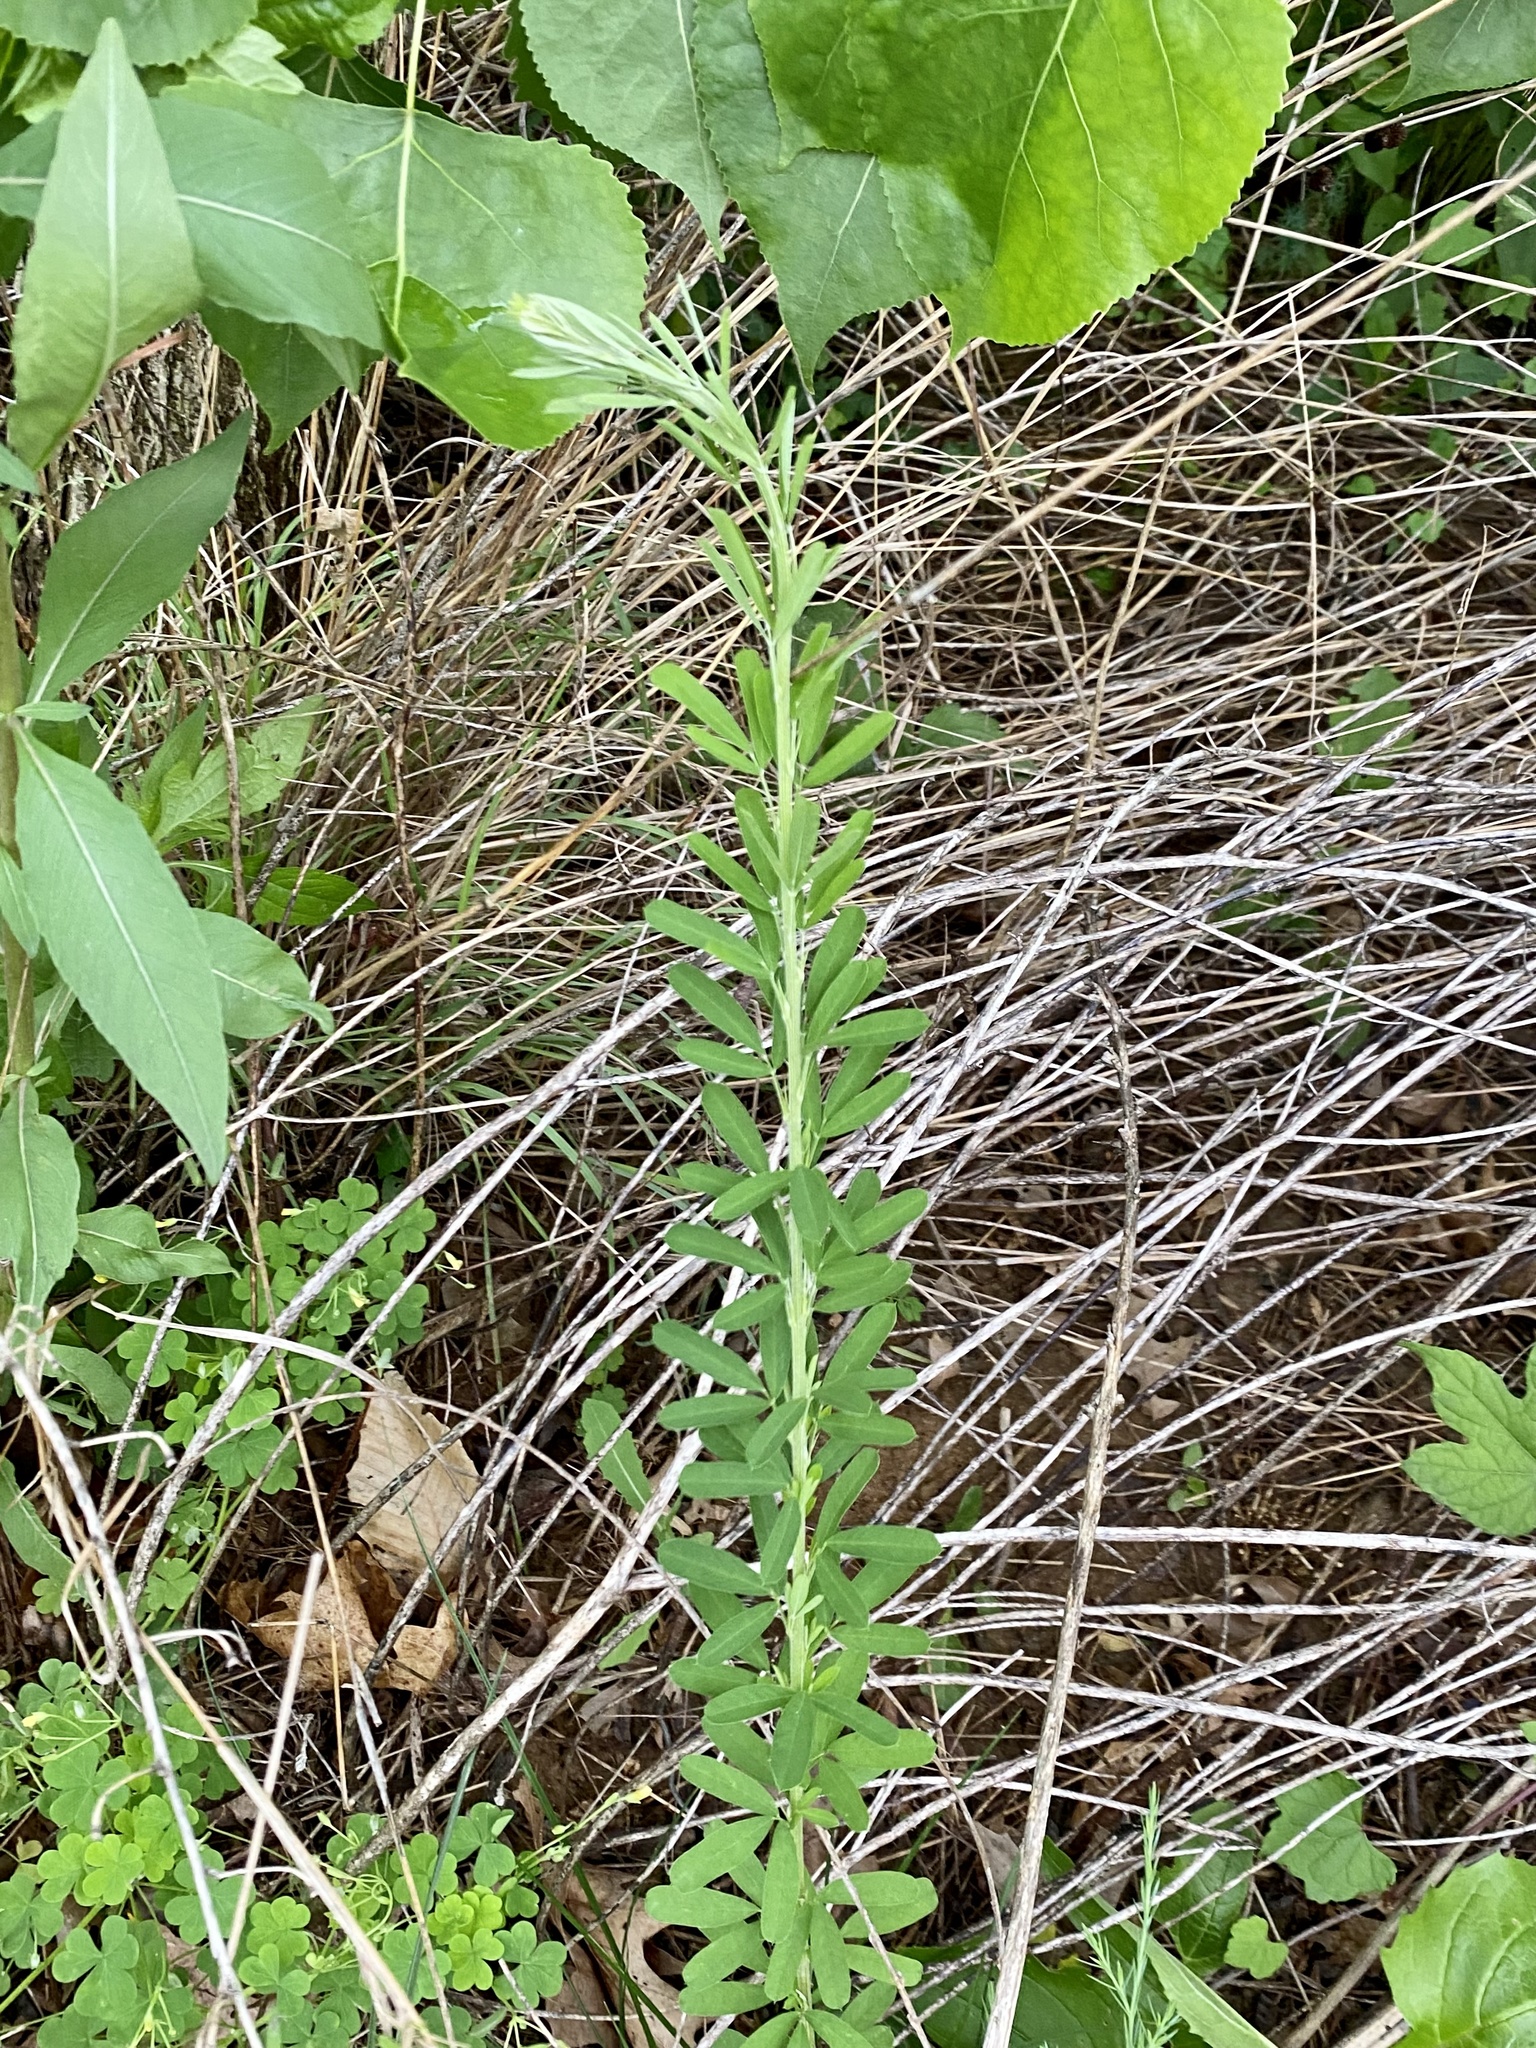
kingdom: Plantae
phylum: Tracheophyta
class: Magnoliopsida
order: Fabales
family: Fabaceae
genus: Lespedeza
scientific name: Lespedeza cuneata
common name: Chinese bush-clover
